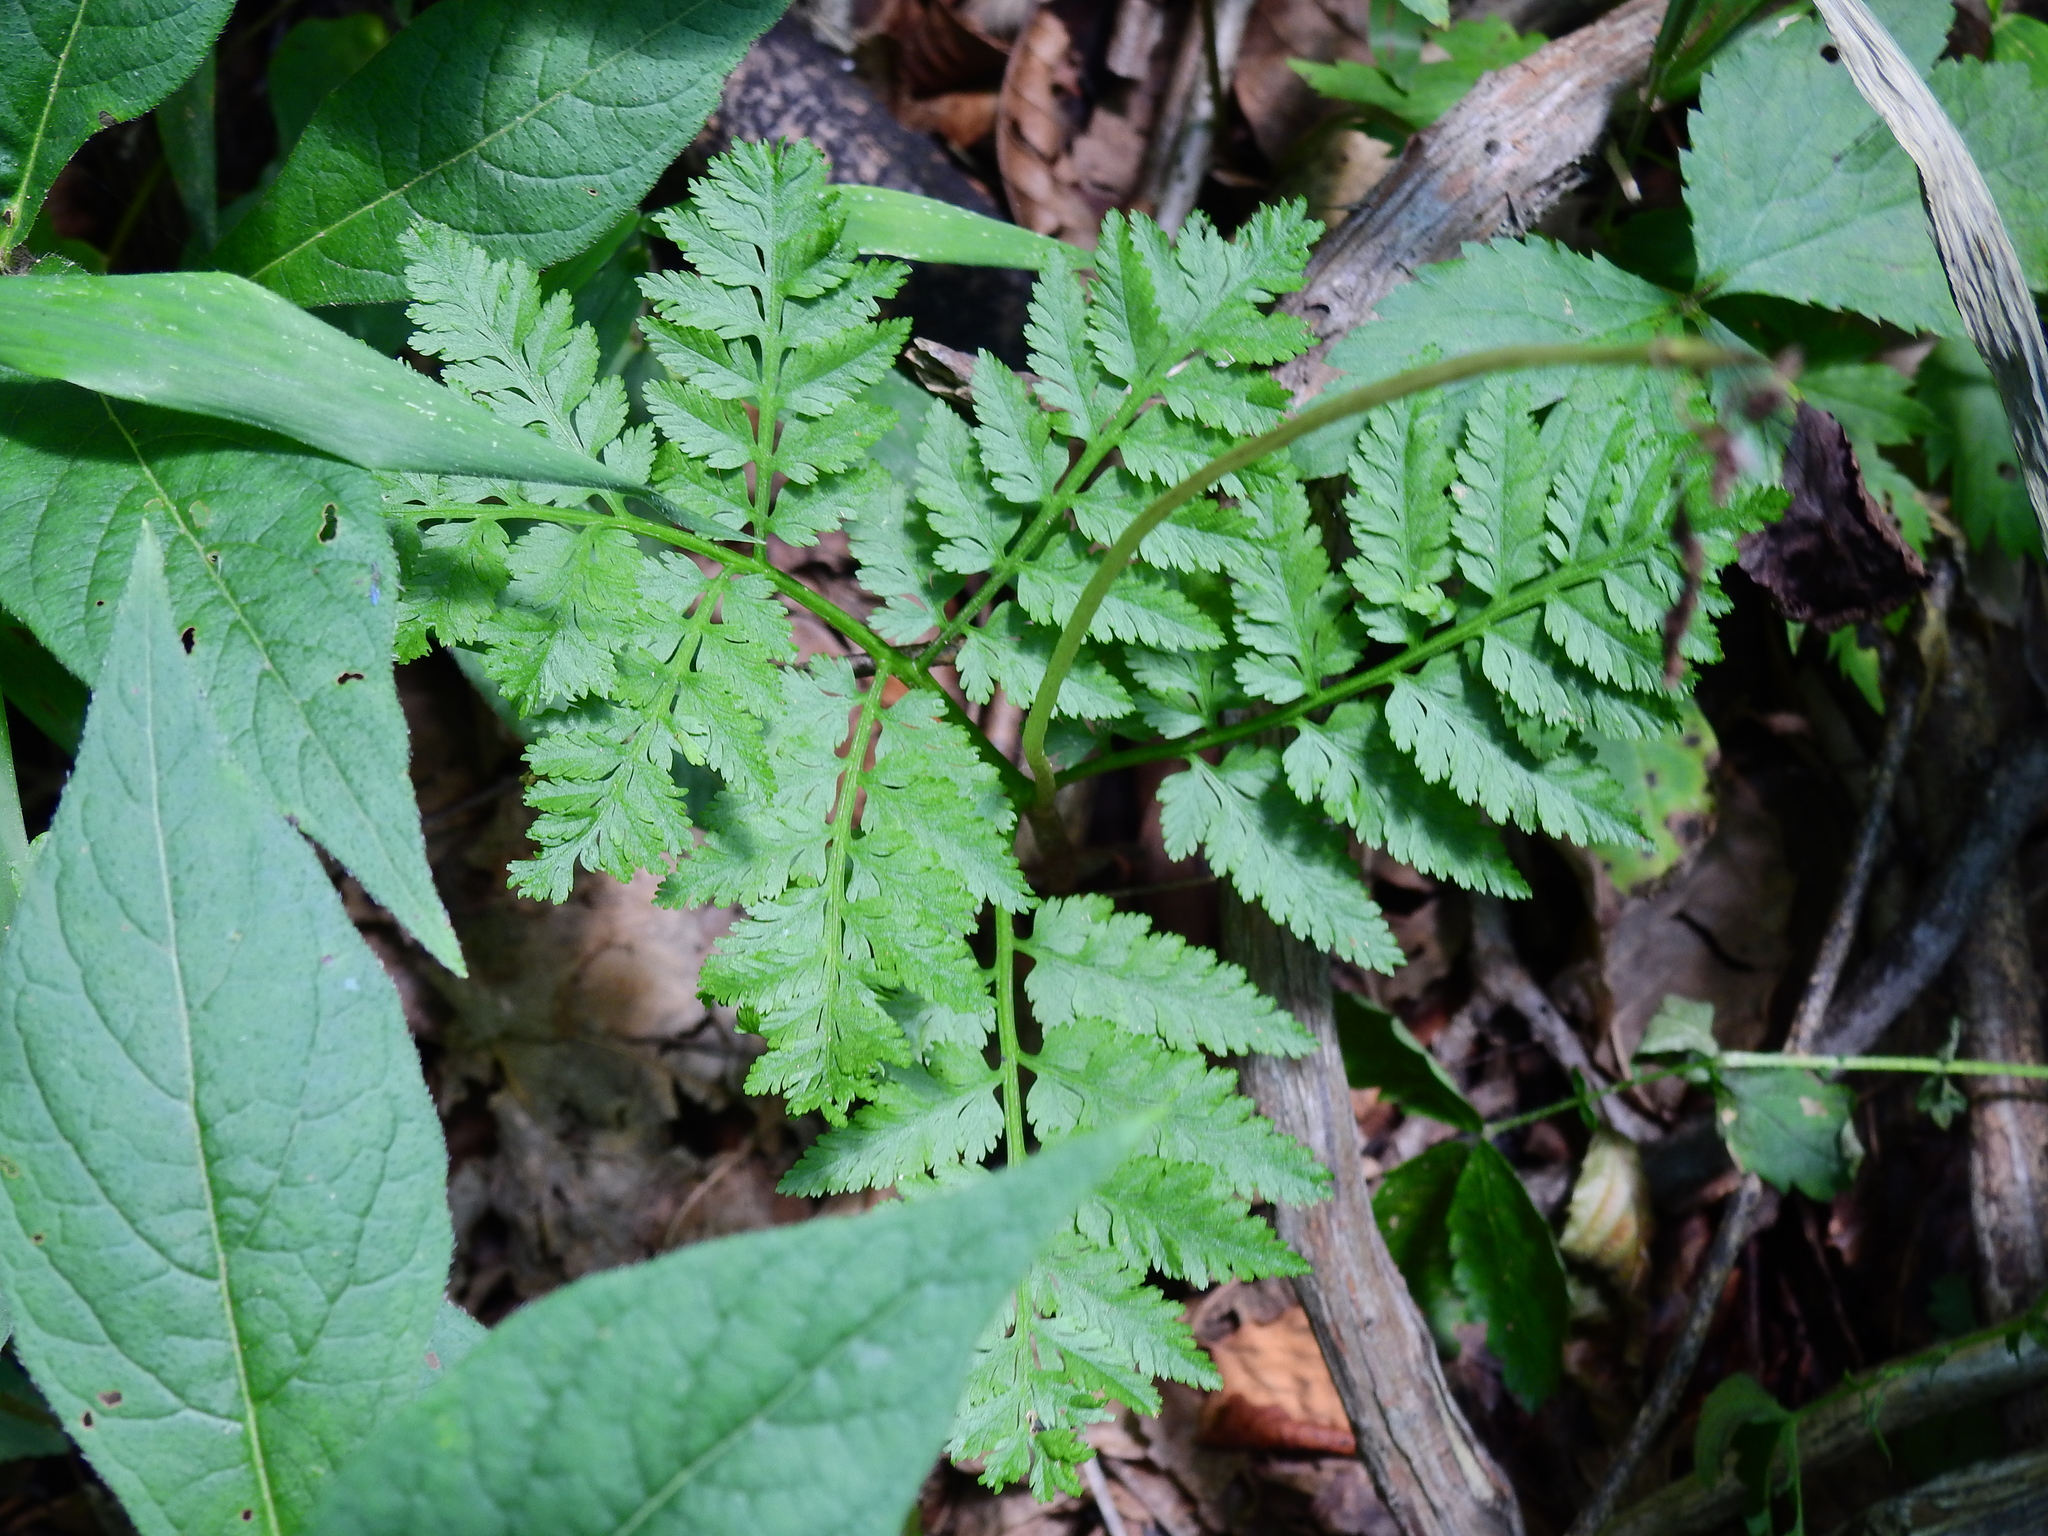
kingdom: Plantae
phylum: Tracheophyta
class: Polypodiopsida
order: Ophioglossales
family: Ophioglossaceae
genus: Botrypus
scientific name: Botrypus virginianus
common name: Common grapefern
